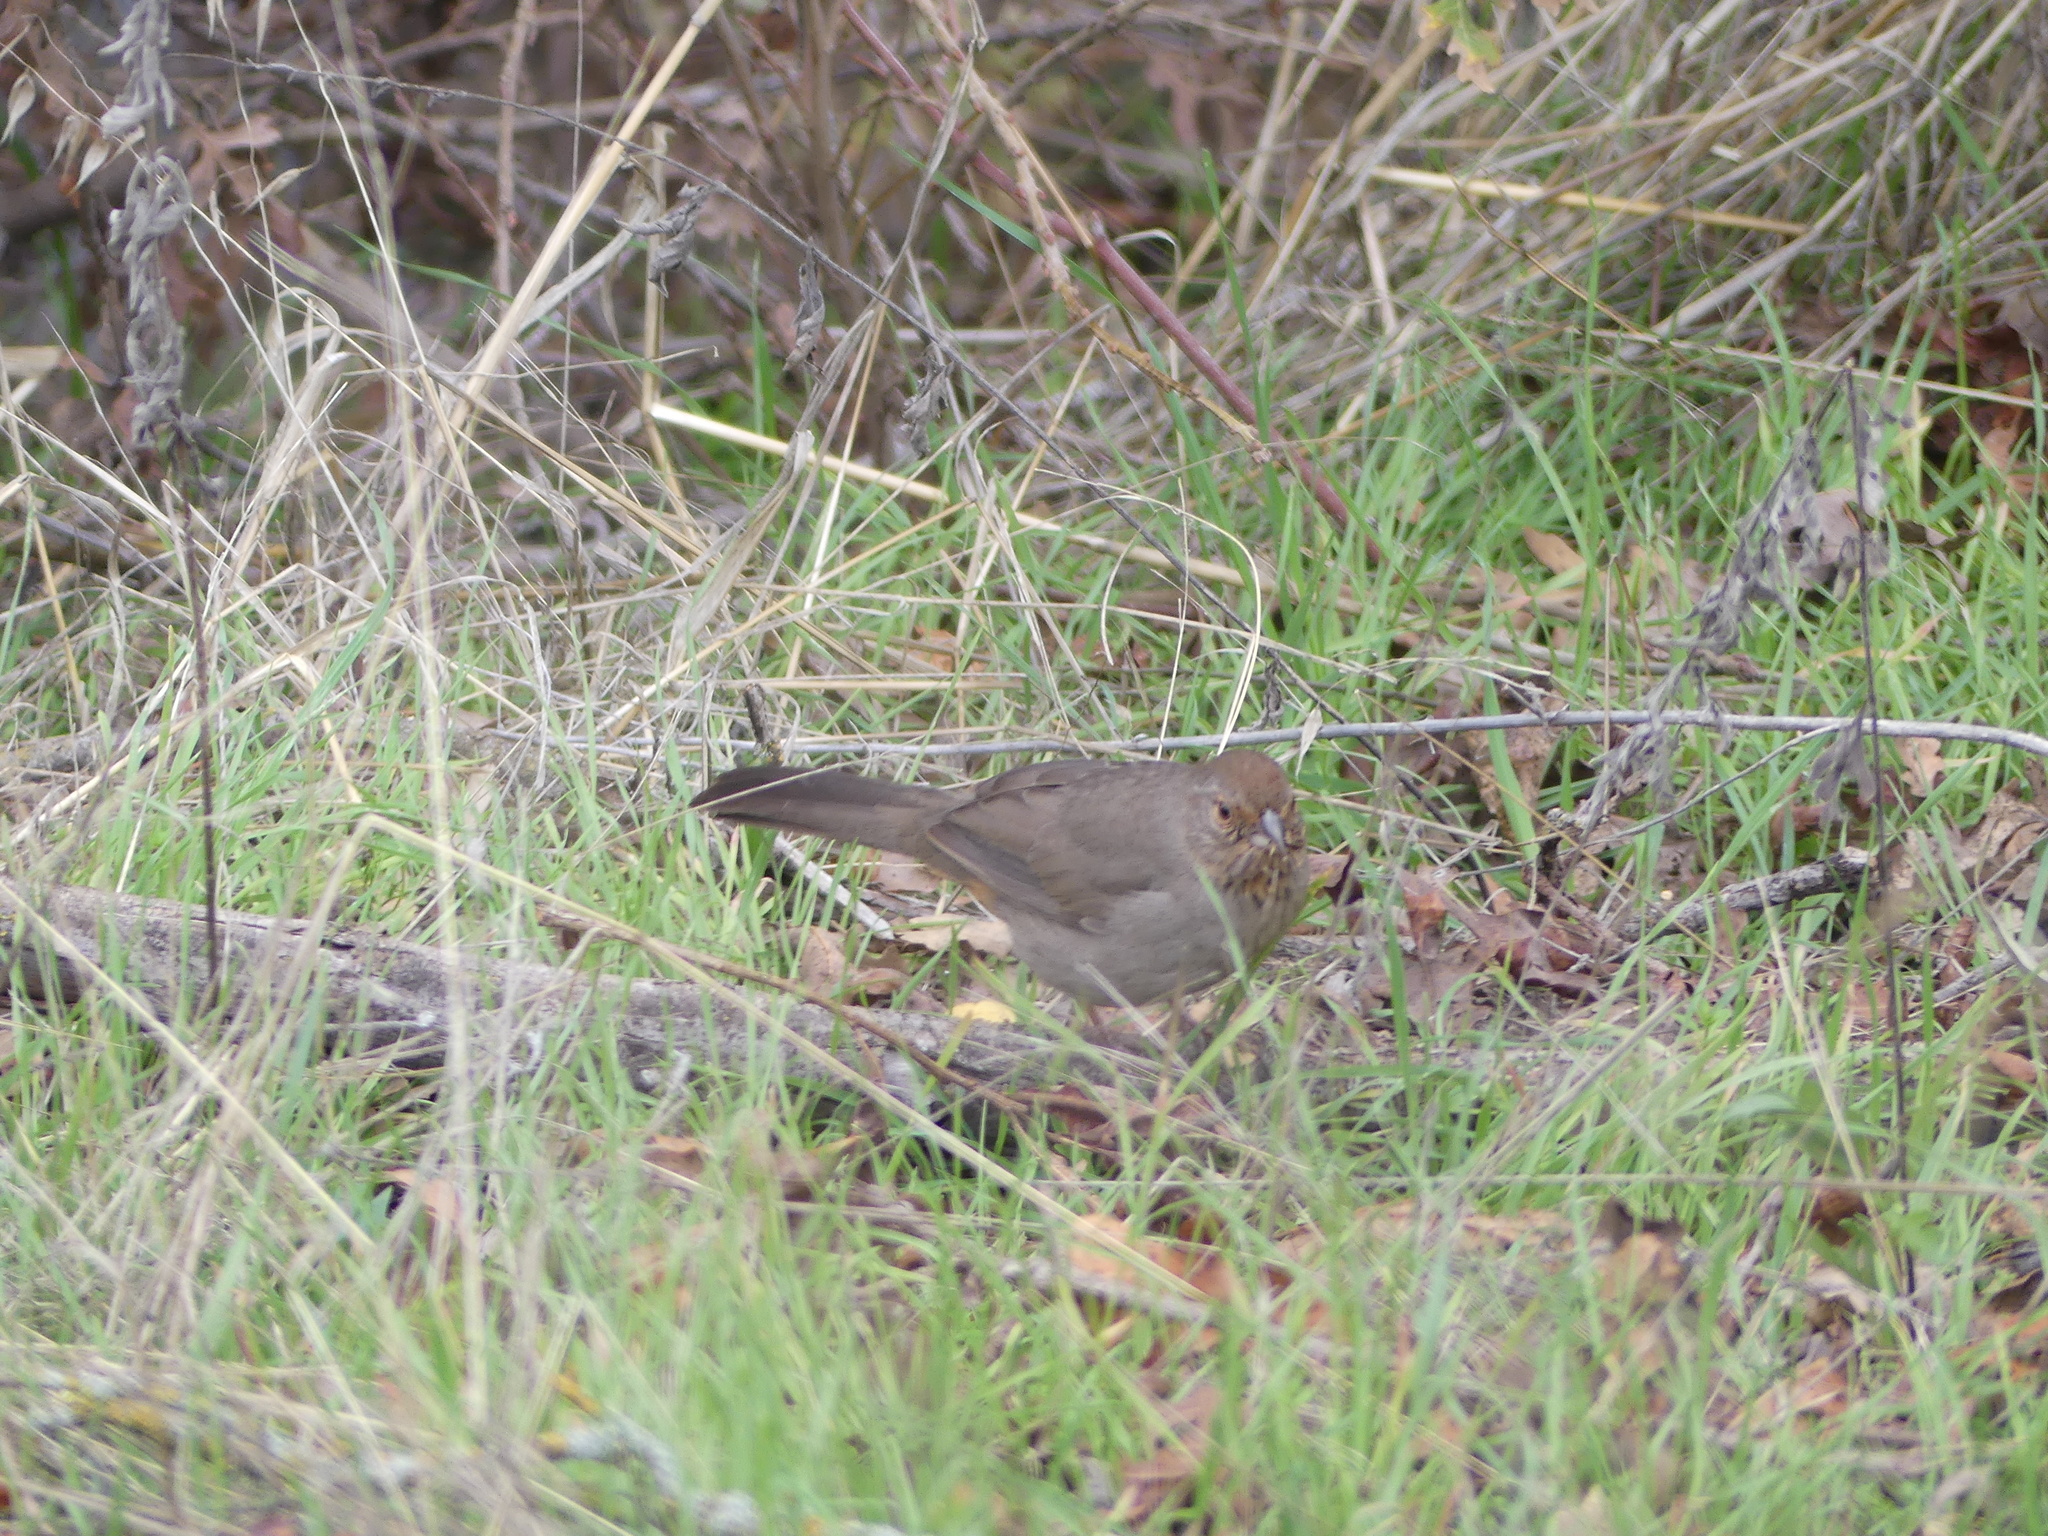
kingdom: Animalia
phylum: Chordata
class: Aves
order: Passeriformes
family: Passerellidae
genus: Melozone
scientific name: Melozone crissalis
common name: California towhee
